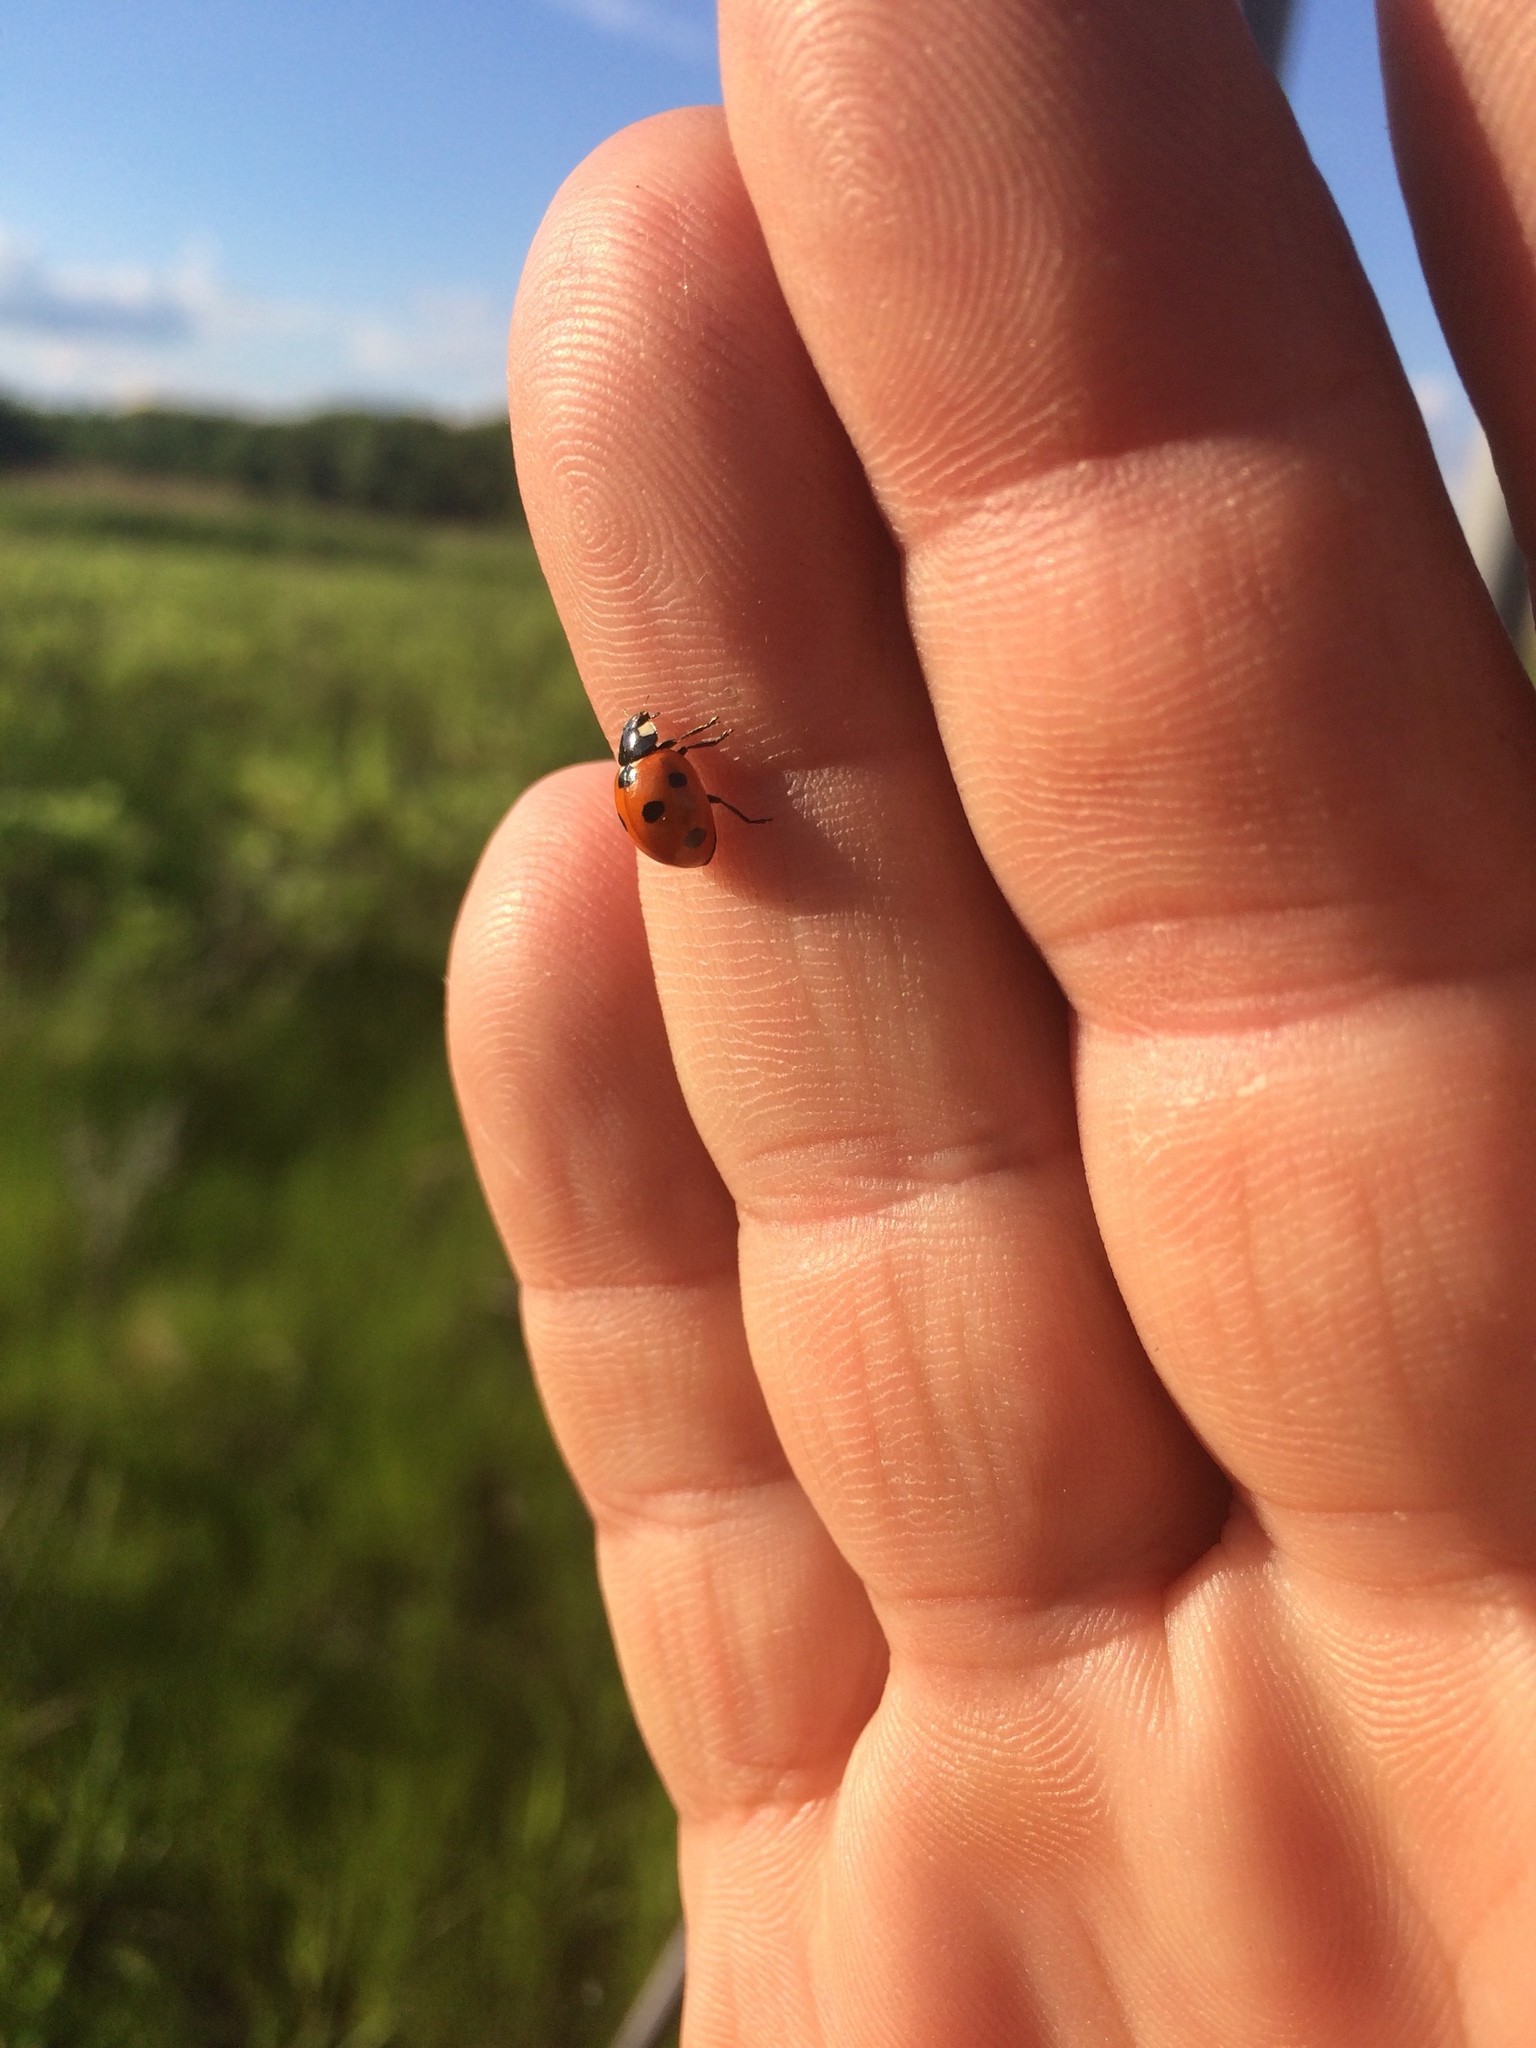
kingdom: Animalia
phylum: Arthropoda
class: Insecta
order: Coleoptera
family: Coccinellidae
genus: Coccinella
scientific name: Coccinella septempunctata
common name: Sevenspotted lady beetle
